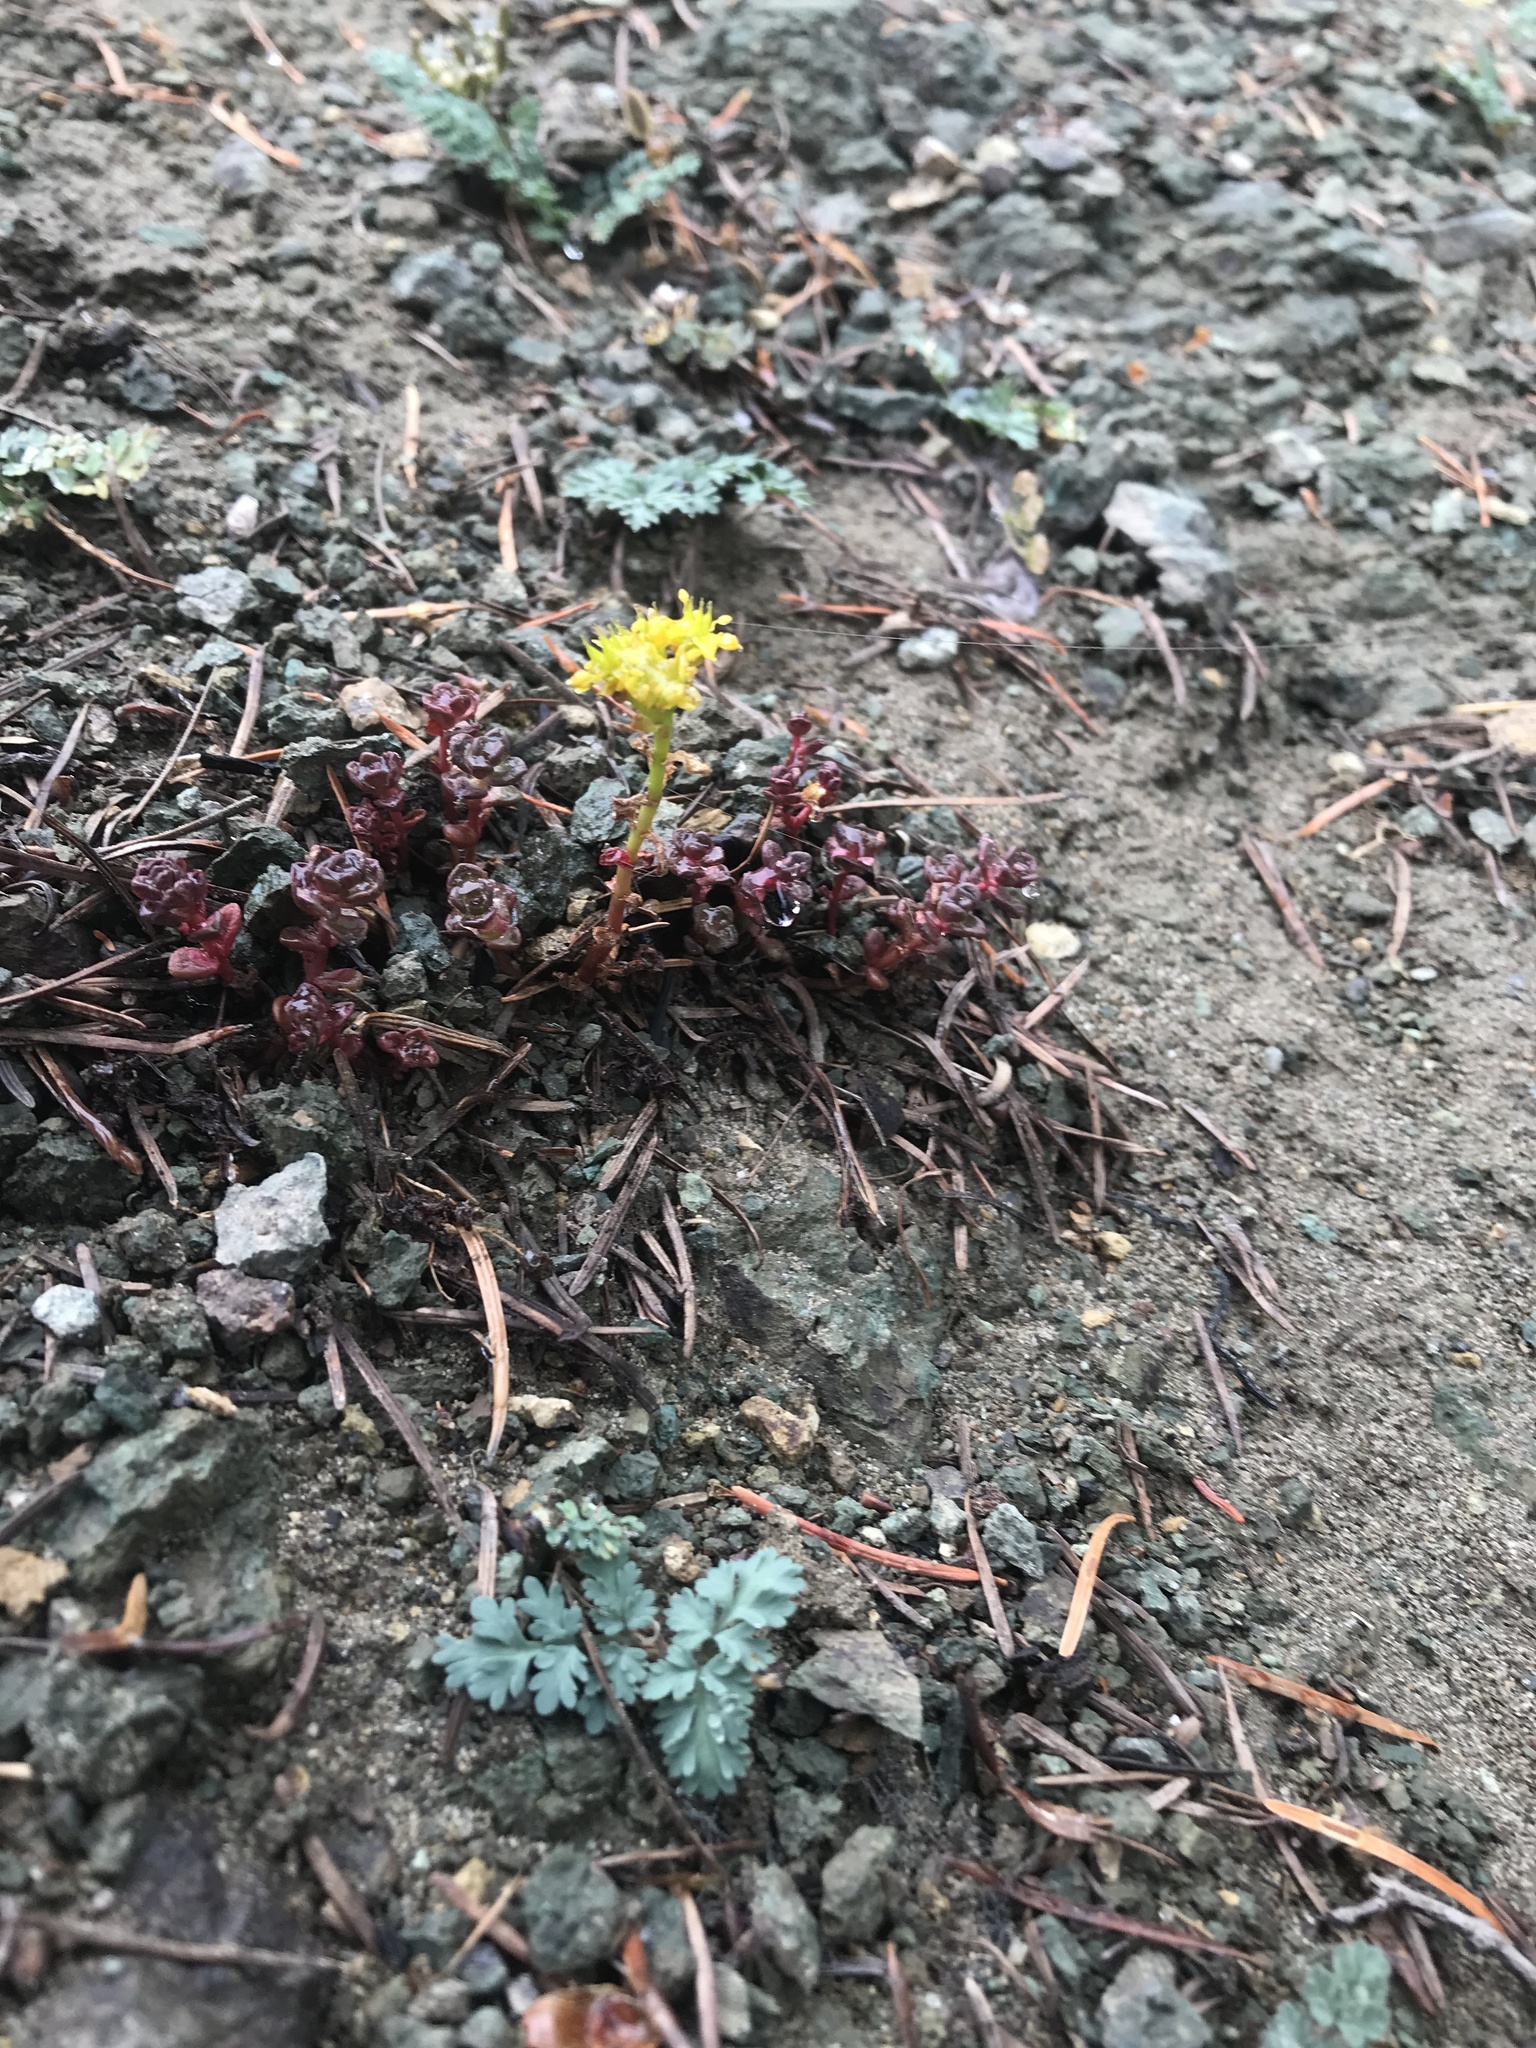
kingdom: Plantae
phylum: Tracheophyta
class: Magnoliopsida
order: Saxifragales
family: Crassulaceae
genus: Sedum
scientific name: Sedum divergens
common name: Cascade stonecrop
